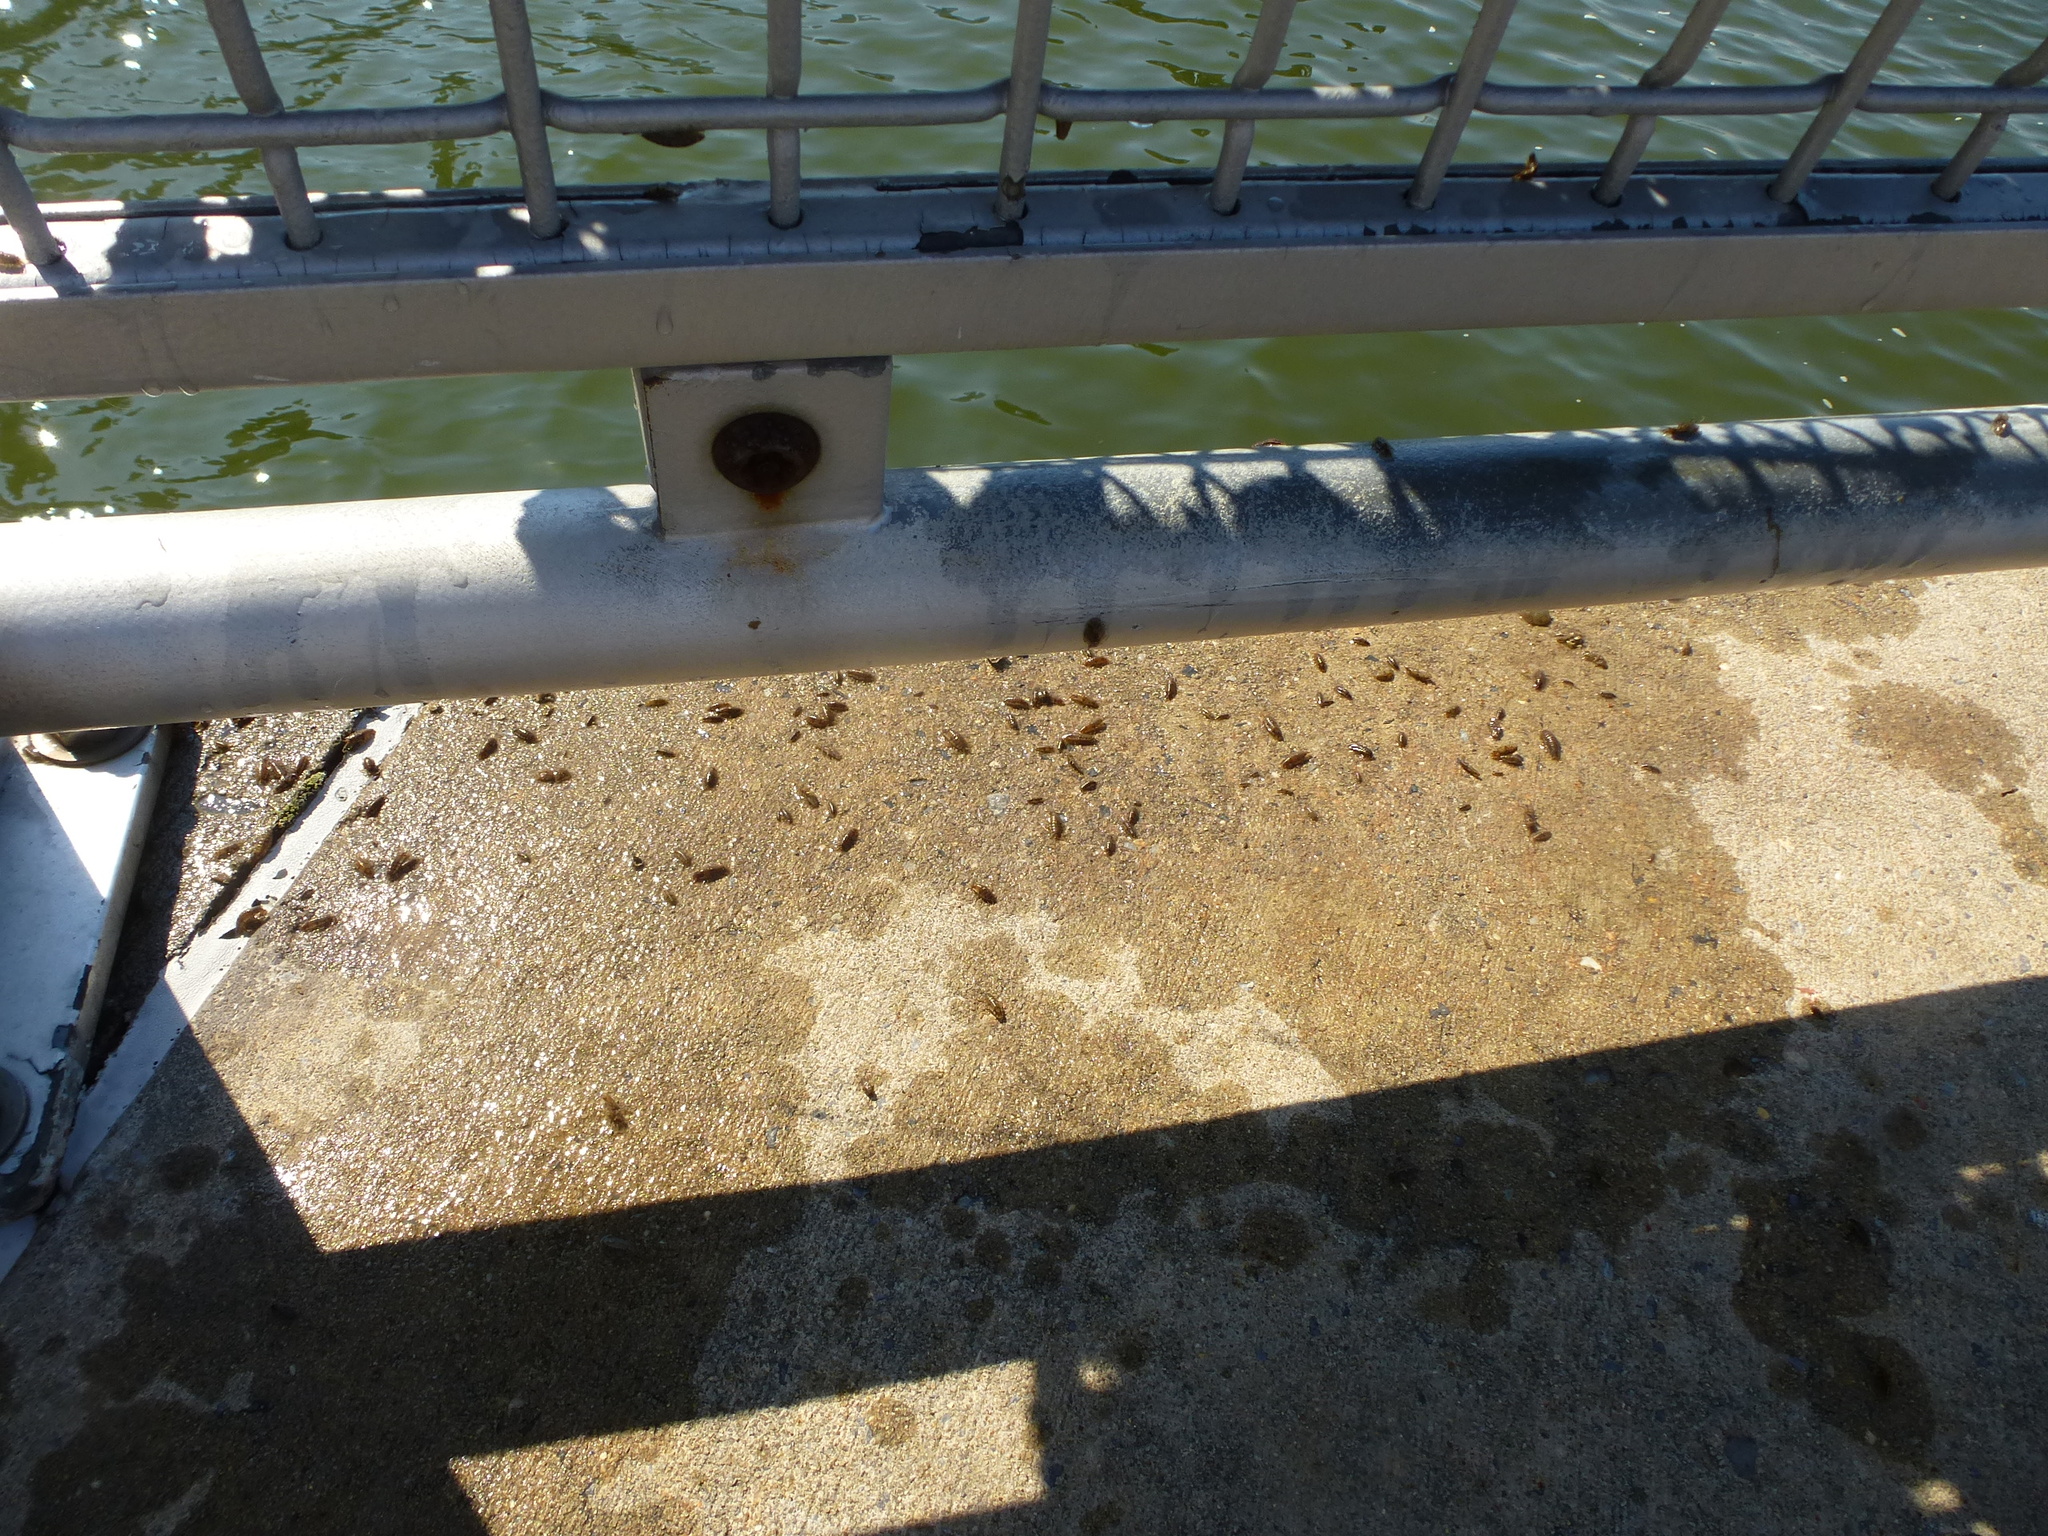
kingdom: Animalia
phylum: Arthropoda
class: Malacostraca
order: Isopoda
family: Idoteidae
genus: Synidotea
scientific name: Synidotea laticauda
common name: Isopod
